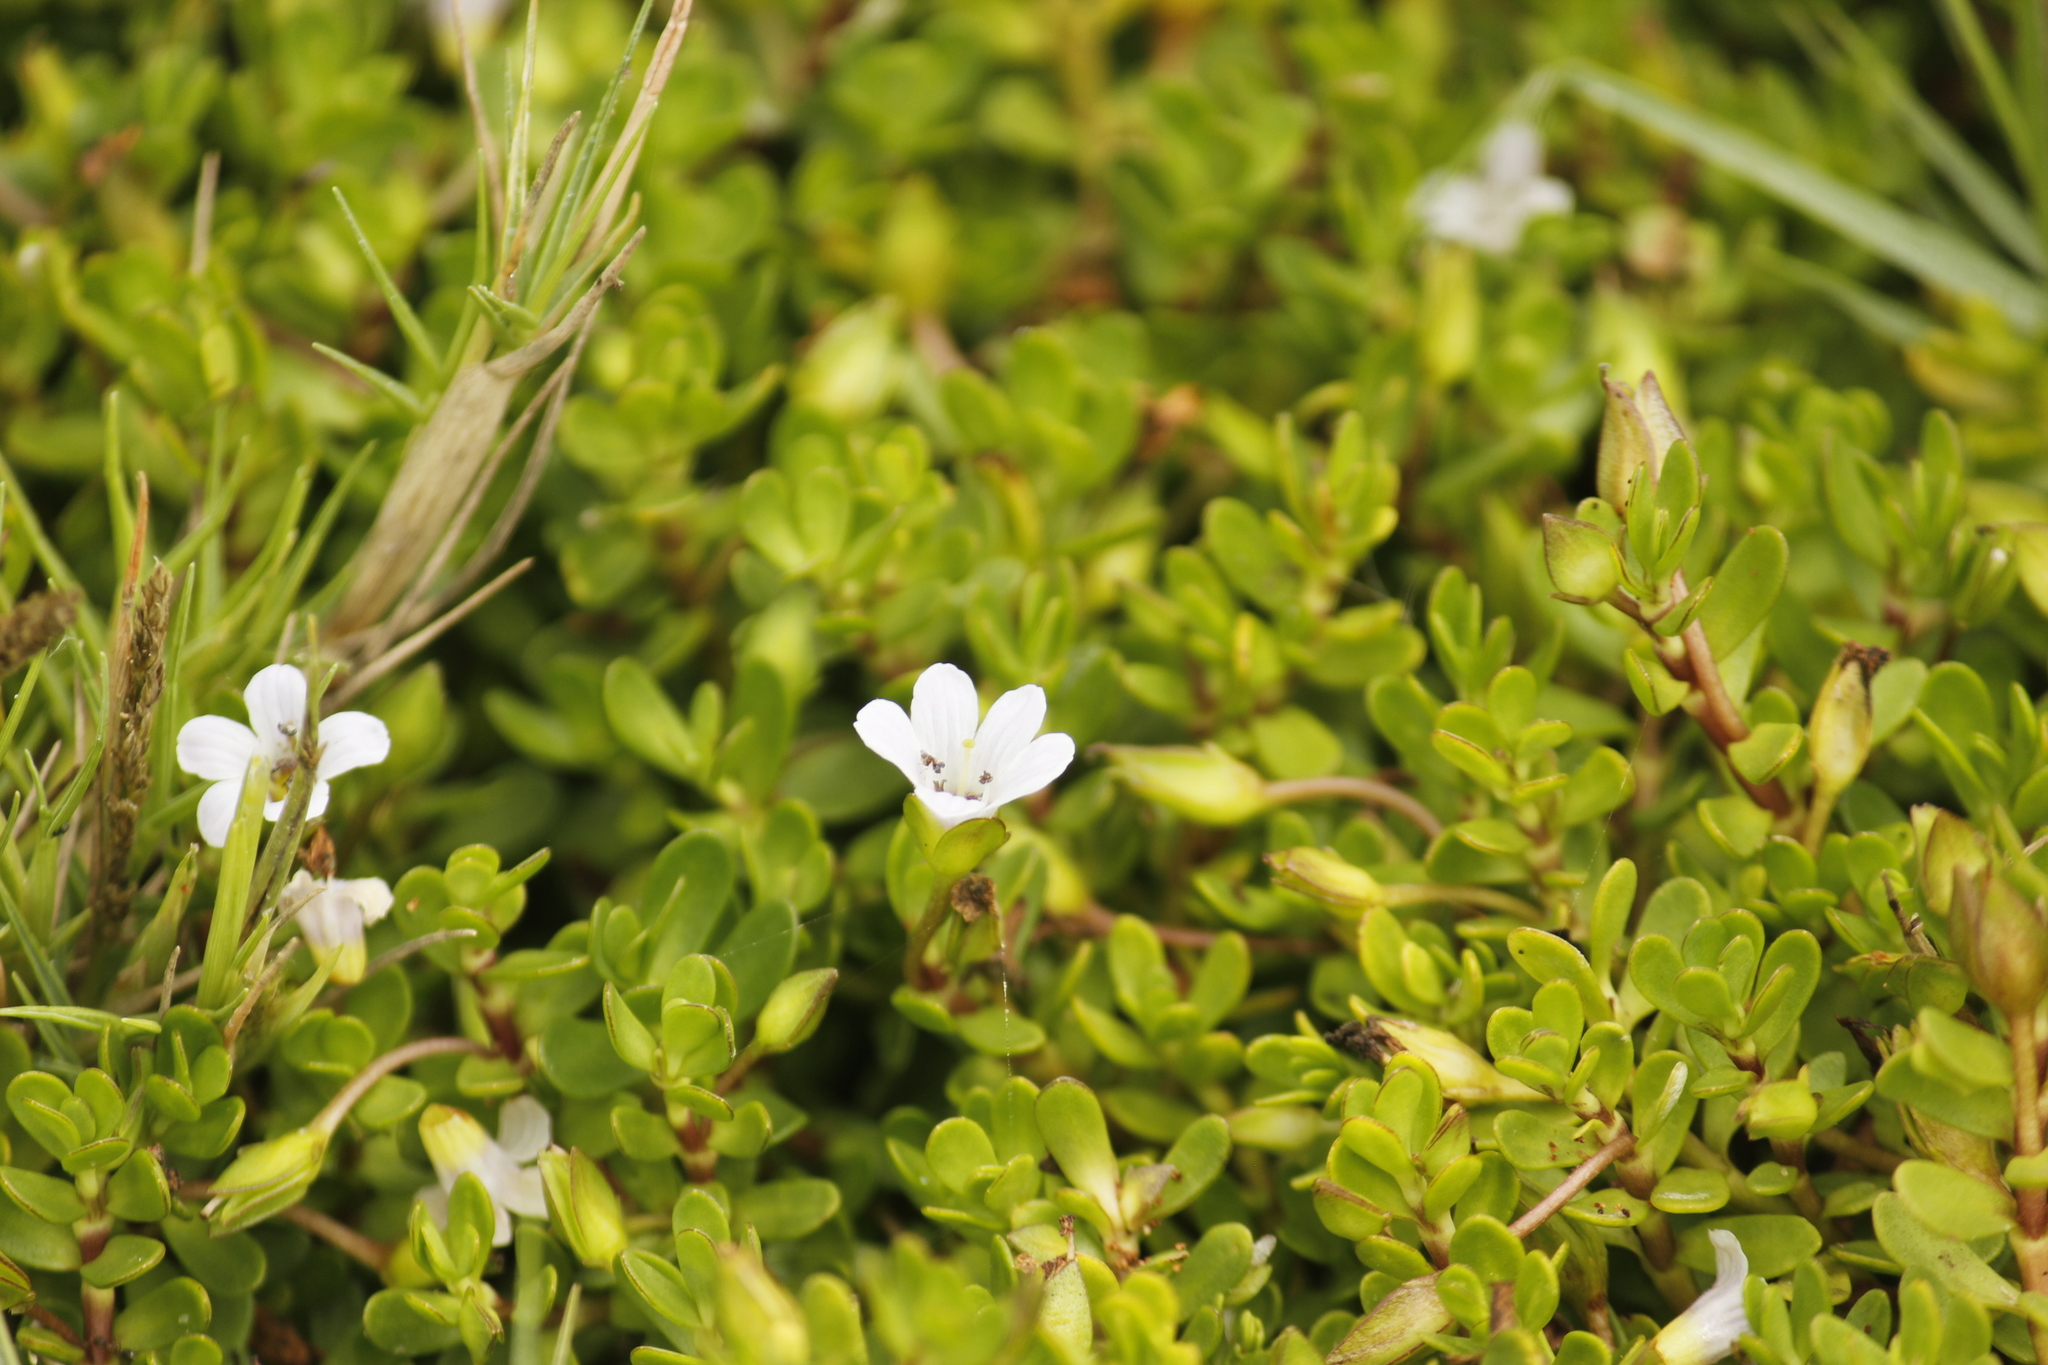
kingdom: Plantae
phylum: Tracheophyta
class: Magnoliopsida
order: Lamiales
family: Plantaginaceae
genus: Bacopa
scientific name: Bacopa monnieri
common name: Indian-pennywort
